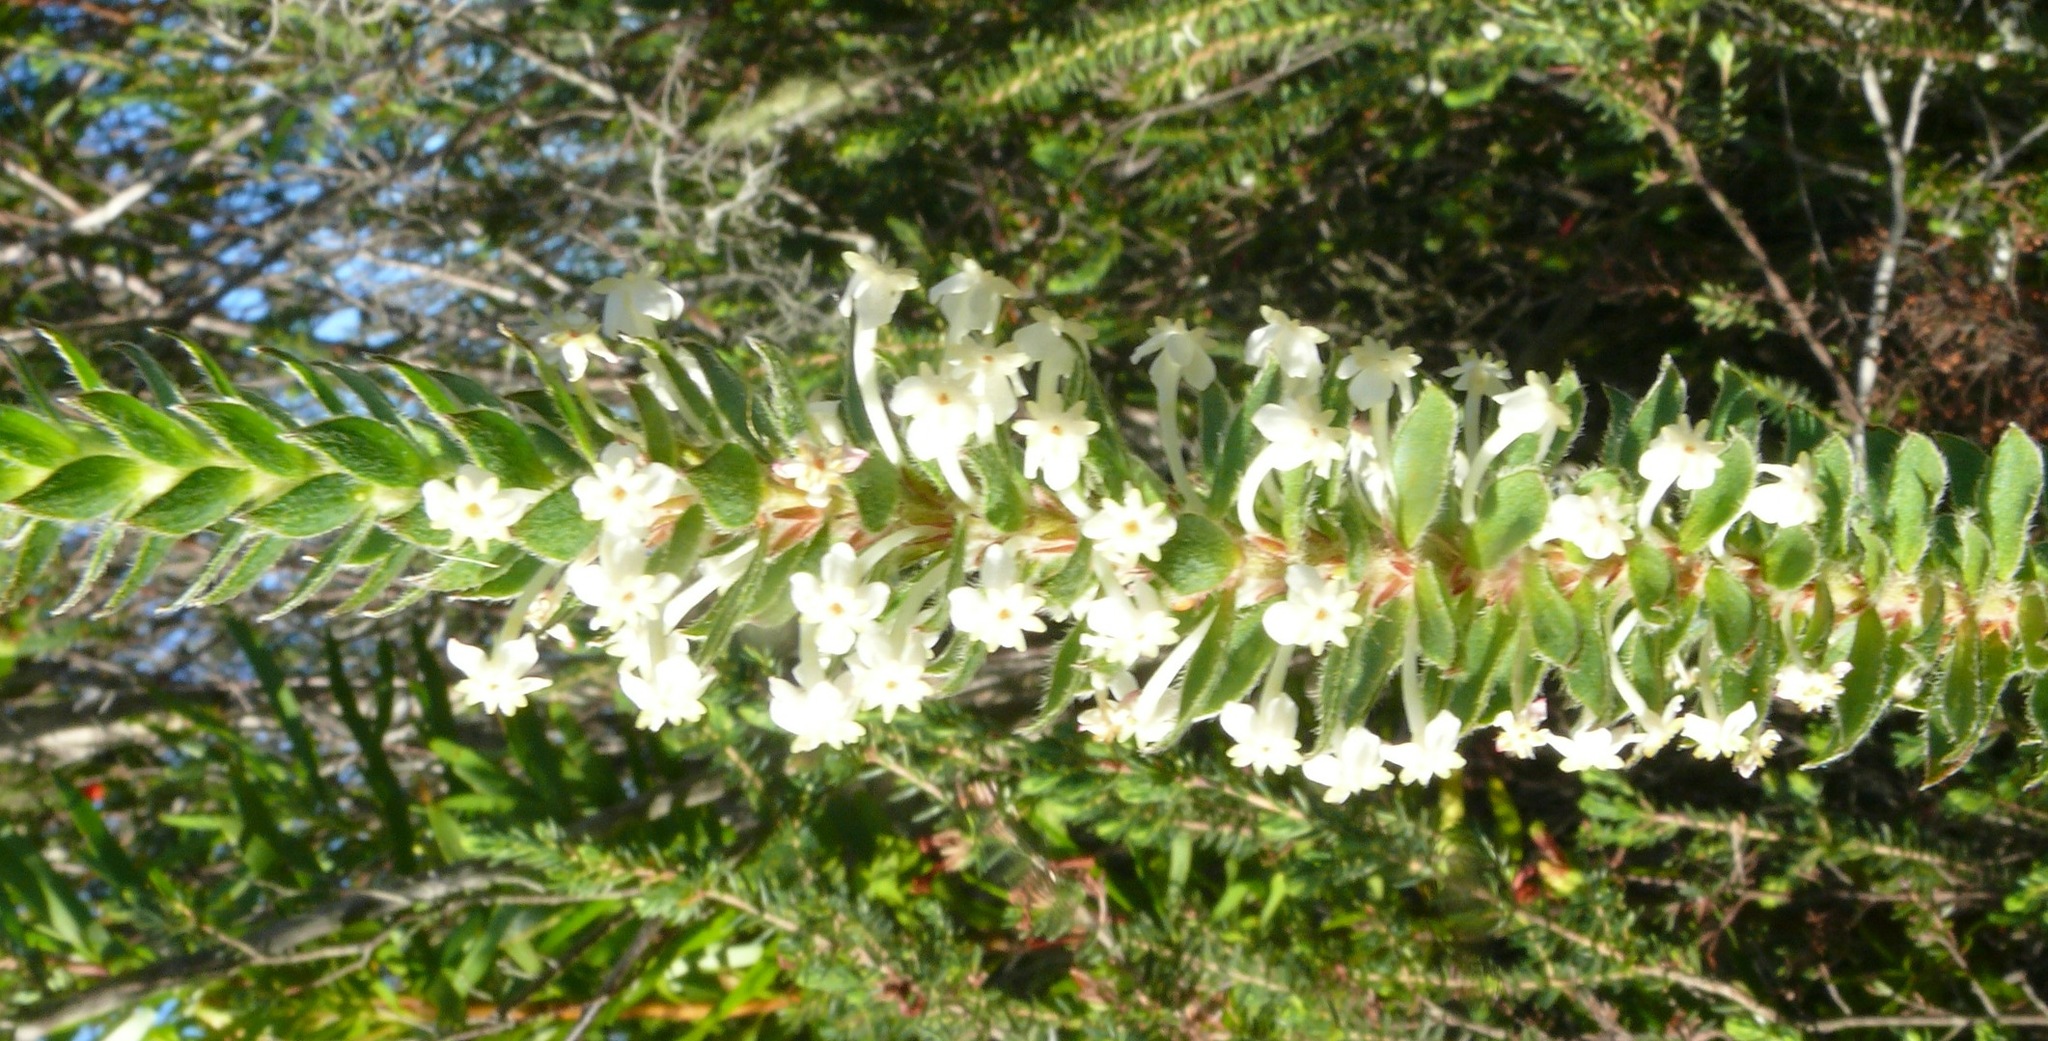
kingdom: Plantae
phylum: Tracheophyta
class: Magnoliopsida
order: Malvales
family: Thymelaeaceae
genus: Struthiola
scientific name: Struthiola hirsuta
